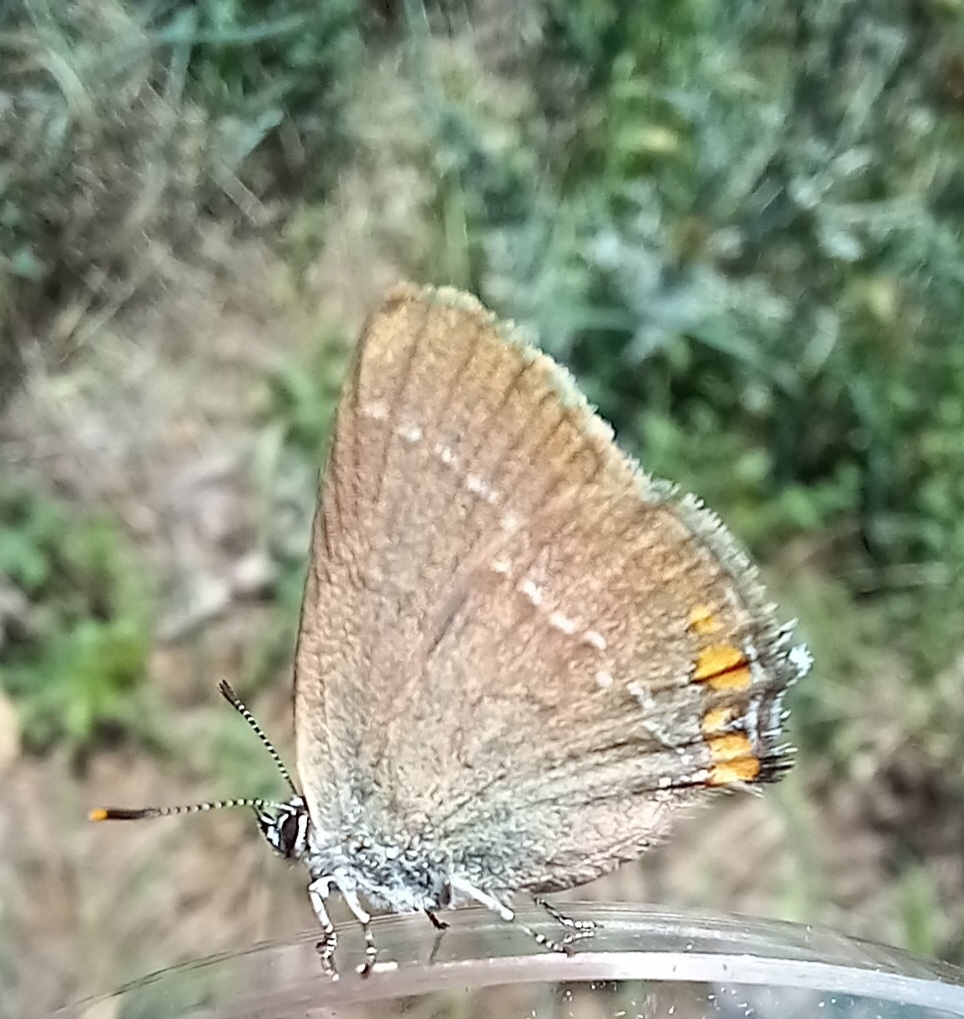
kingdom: Animalia
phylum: Arthropoda
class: Insecta
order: Lepidoptera
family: Lycaenidae
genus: Strymon
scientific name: Strymon acaciae
